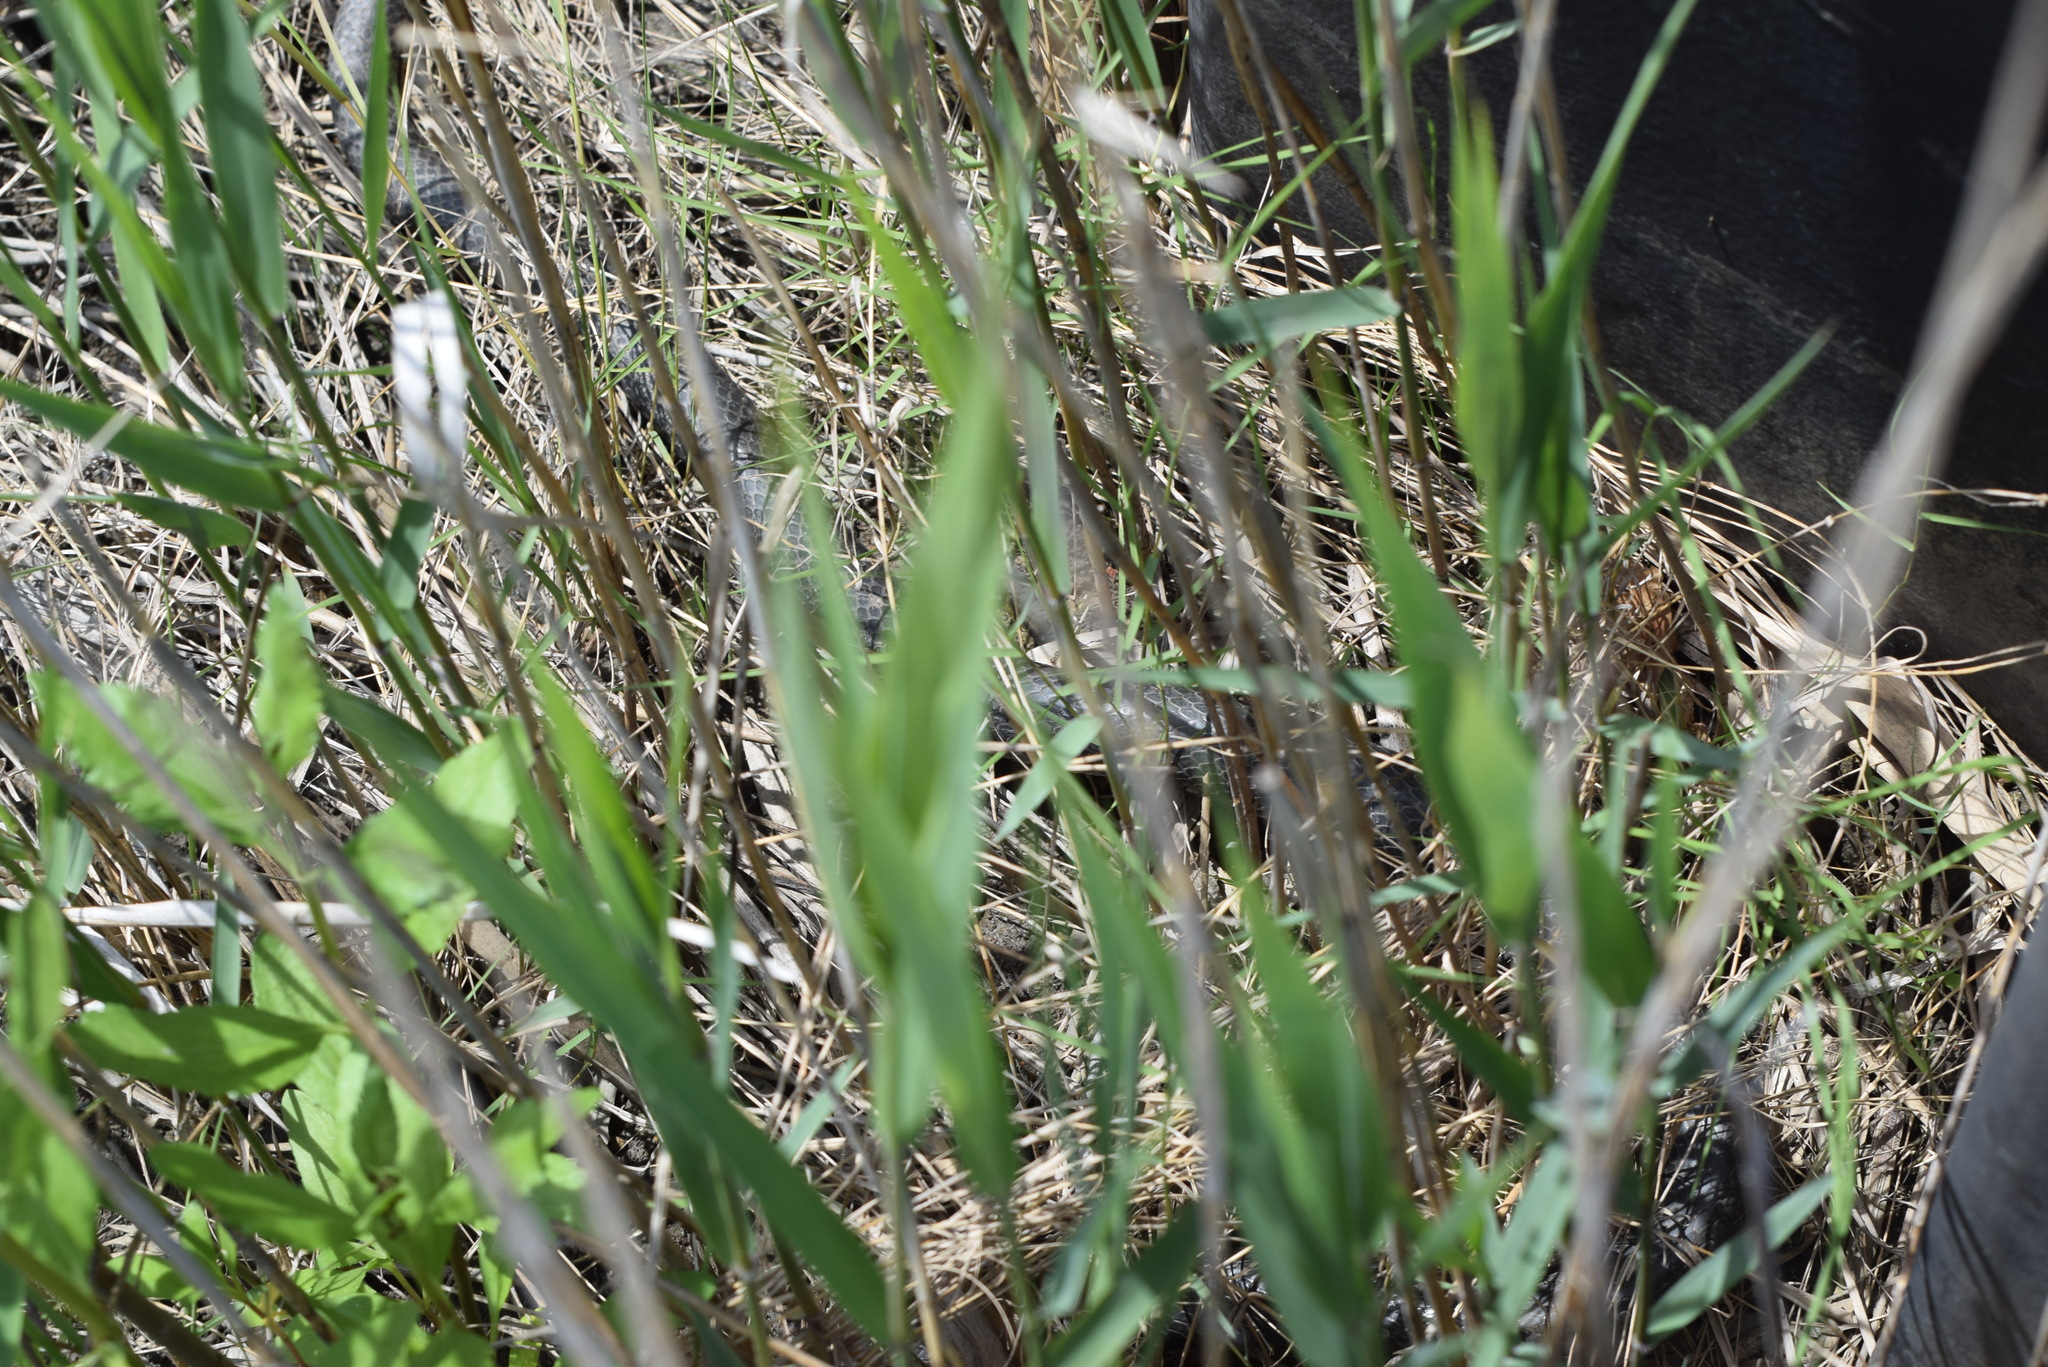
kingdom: Animalia
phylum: Chordata
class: Squamata
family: Colubridae
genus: Coluber
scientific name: Coluber constrictor
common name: Eastern racer
